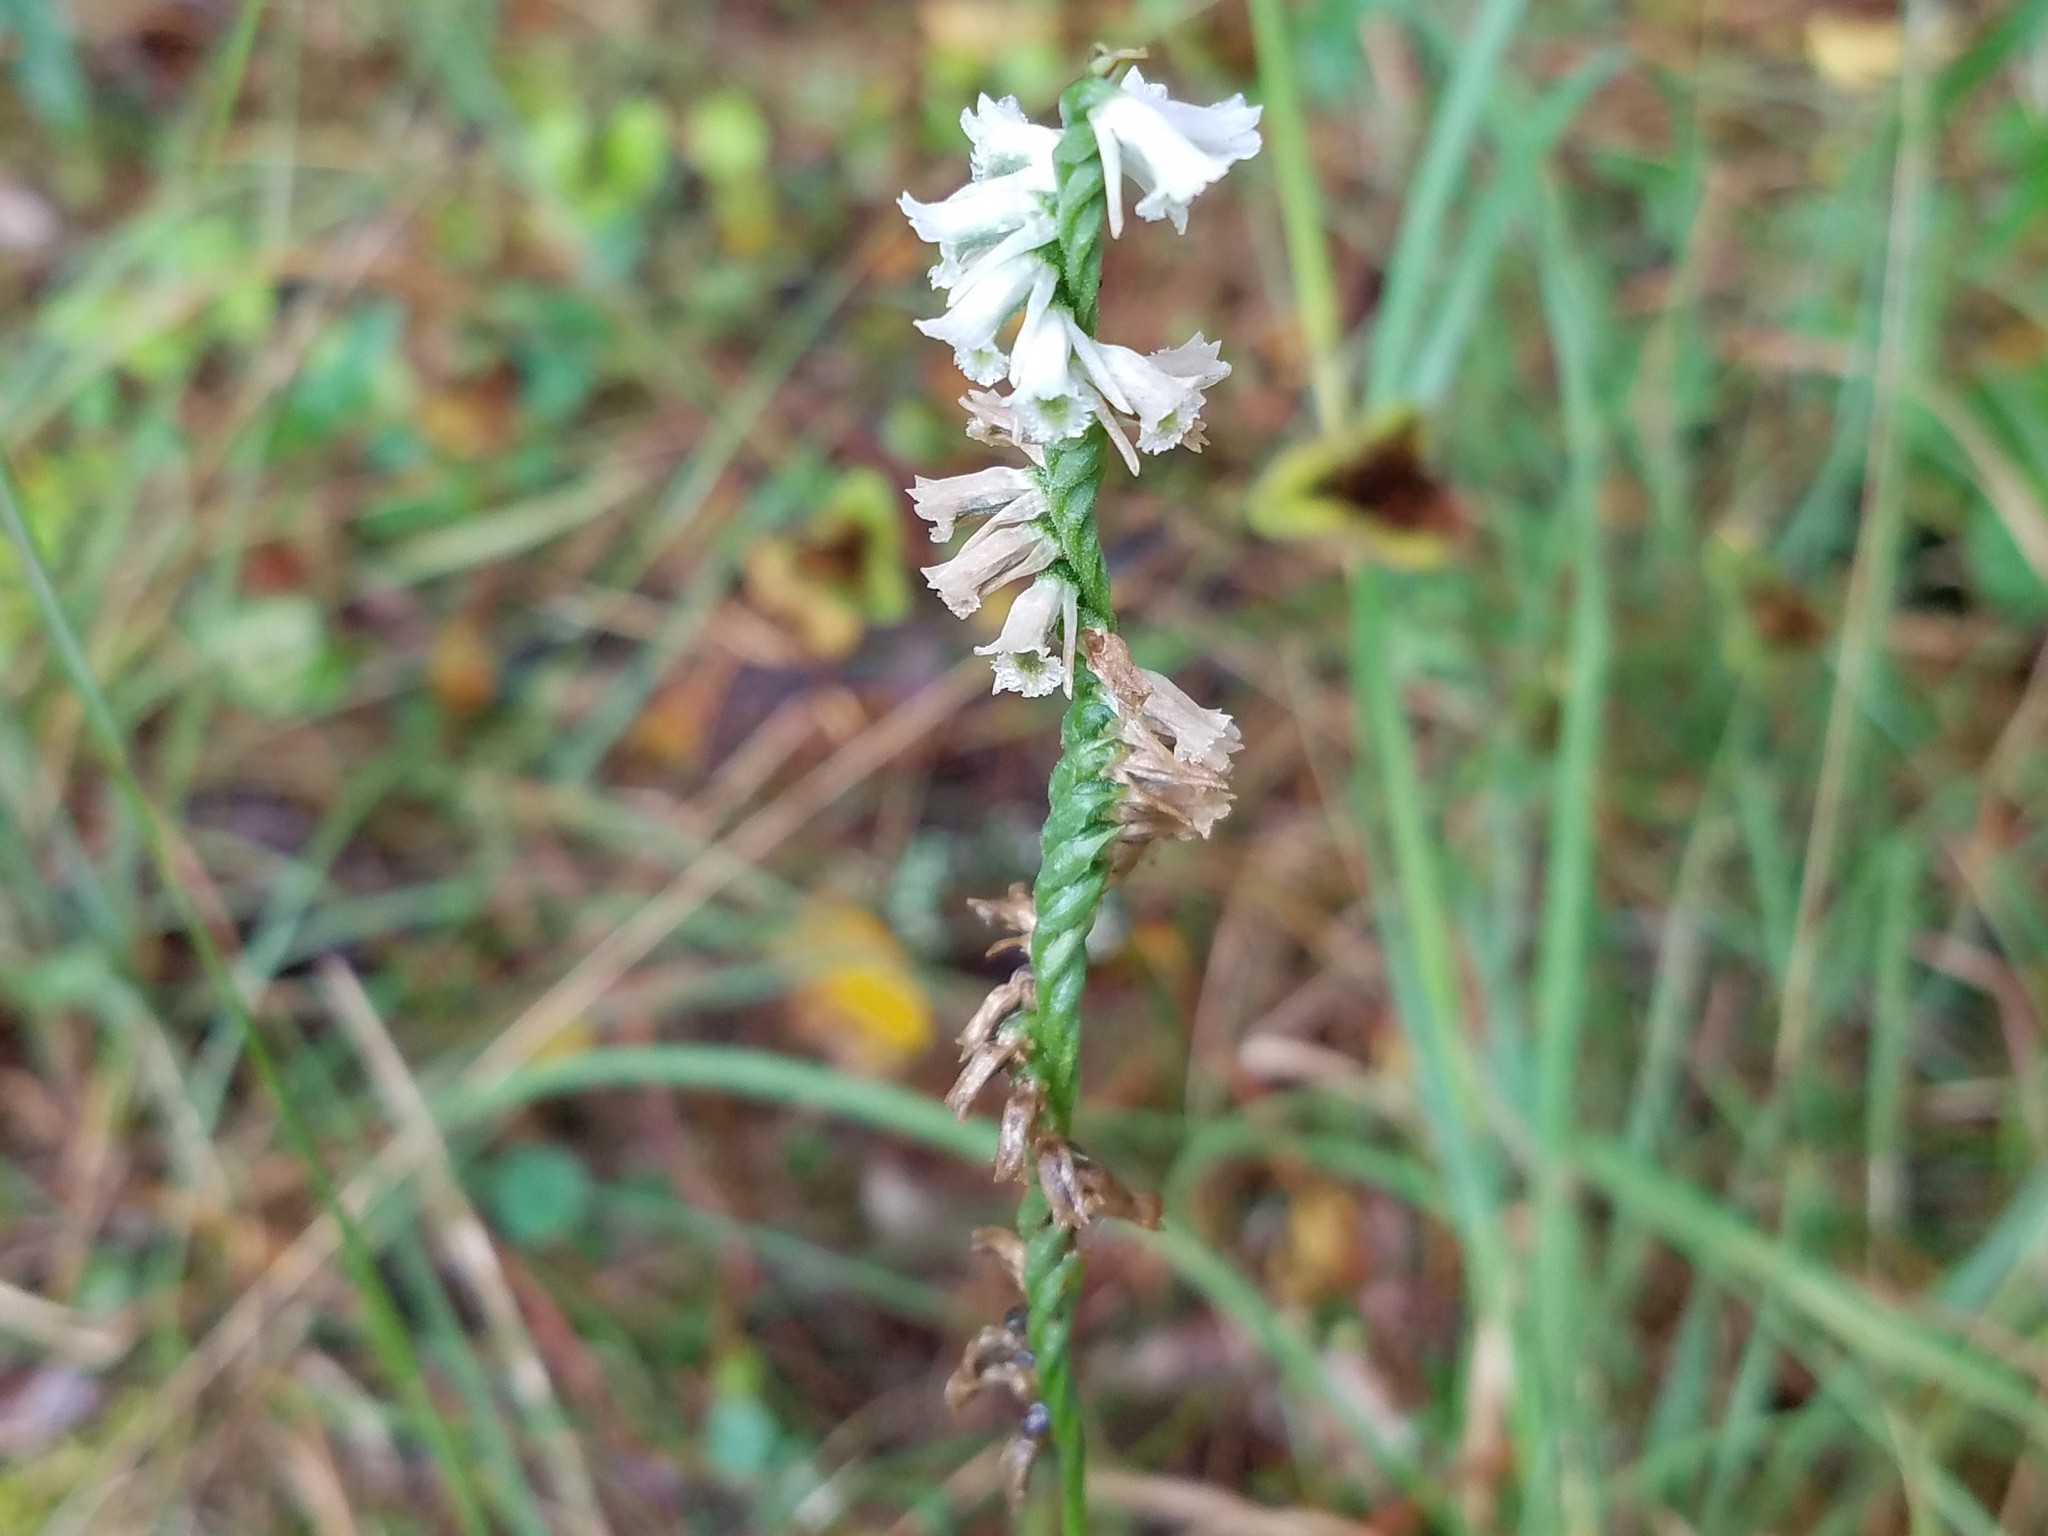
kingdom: Plantae
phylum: Tracheophyta
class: Liliopsida
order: Asparagales
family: Orchidaceae
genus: Spiranthes
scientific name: Spiranthes lacera
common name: Northern slender ladies'-tresses
